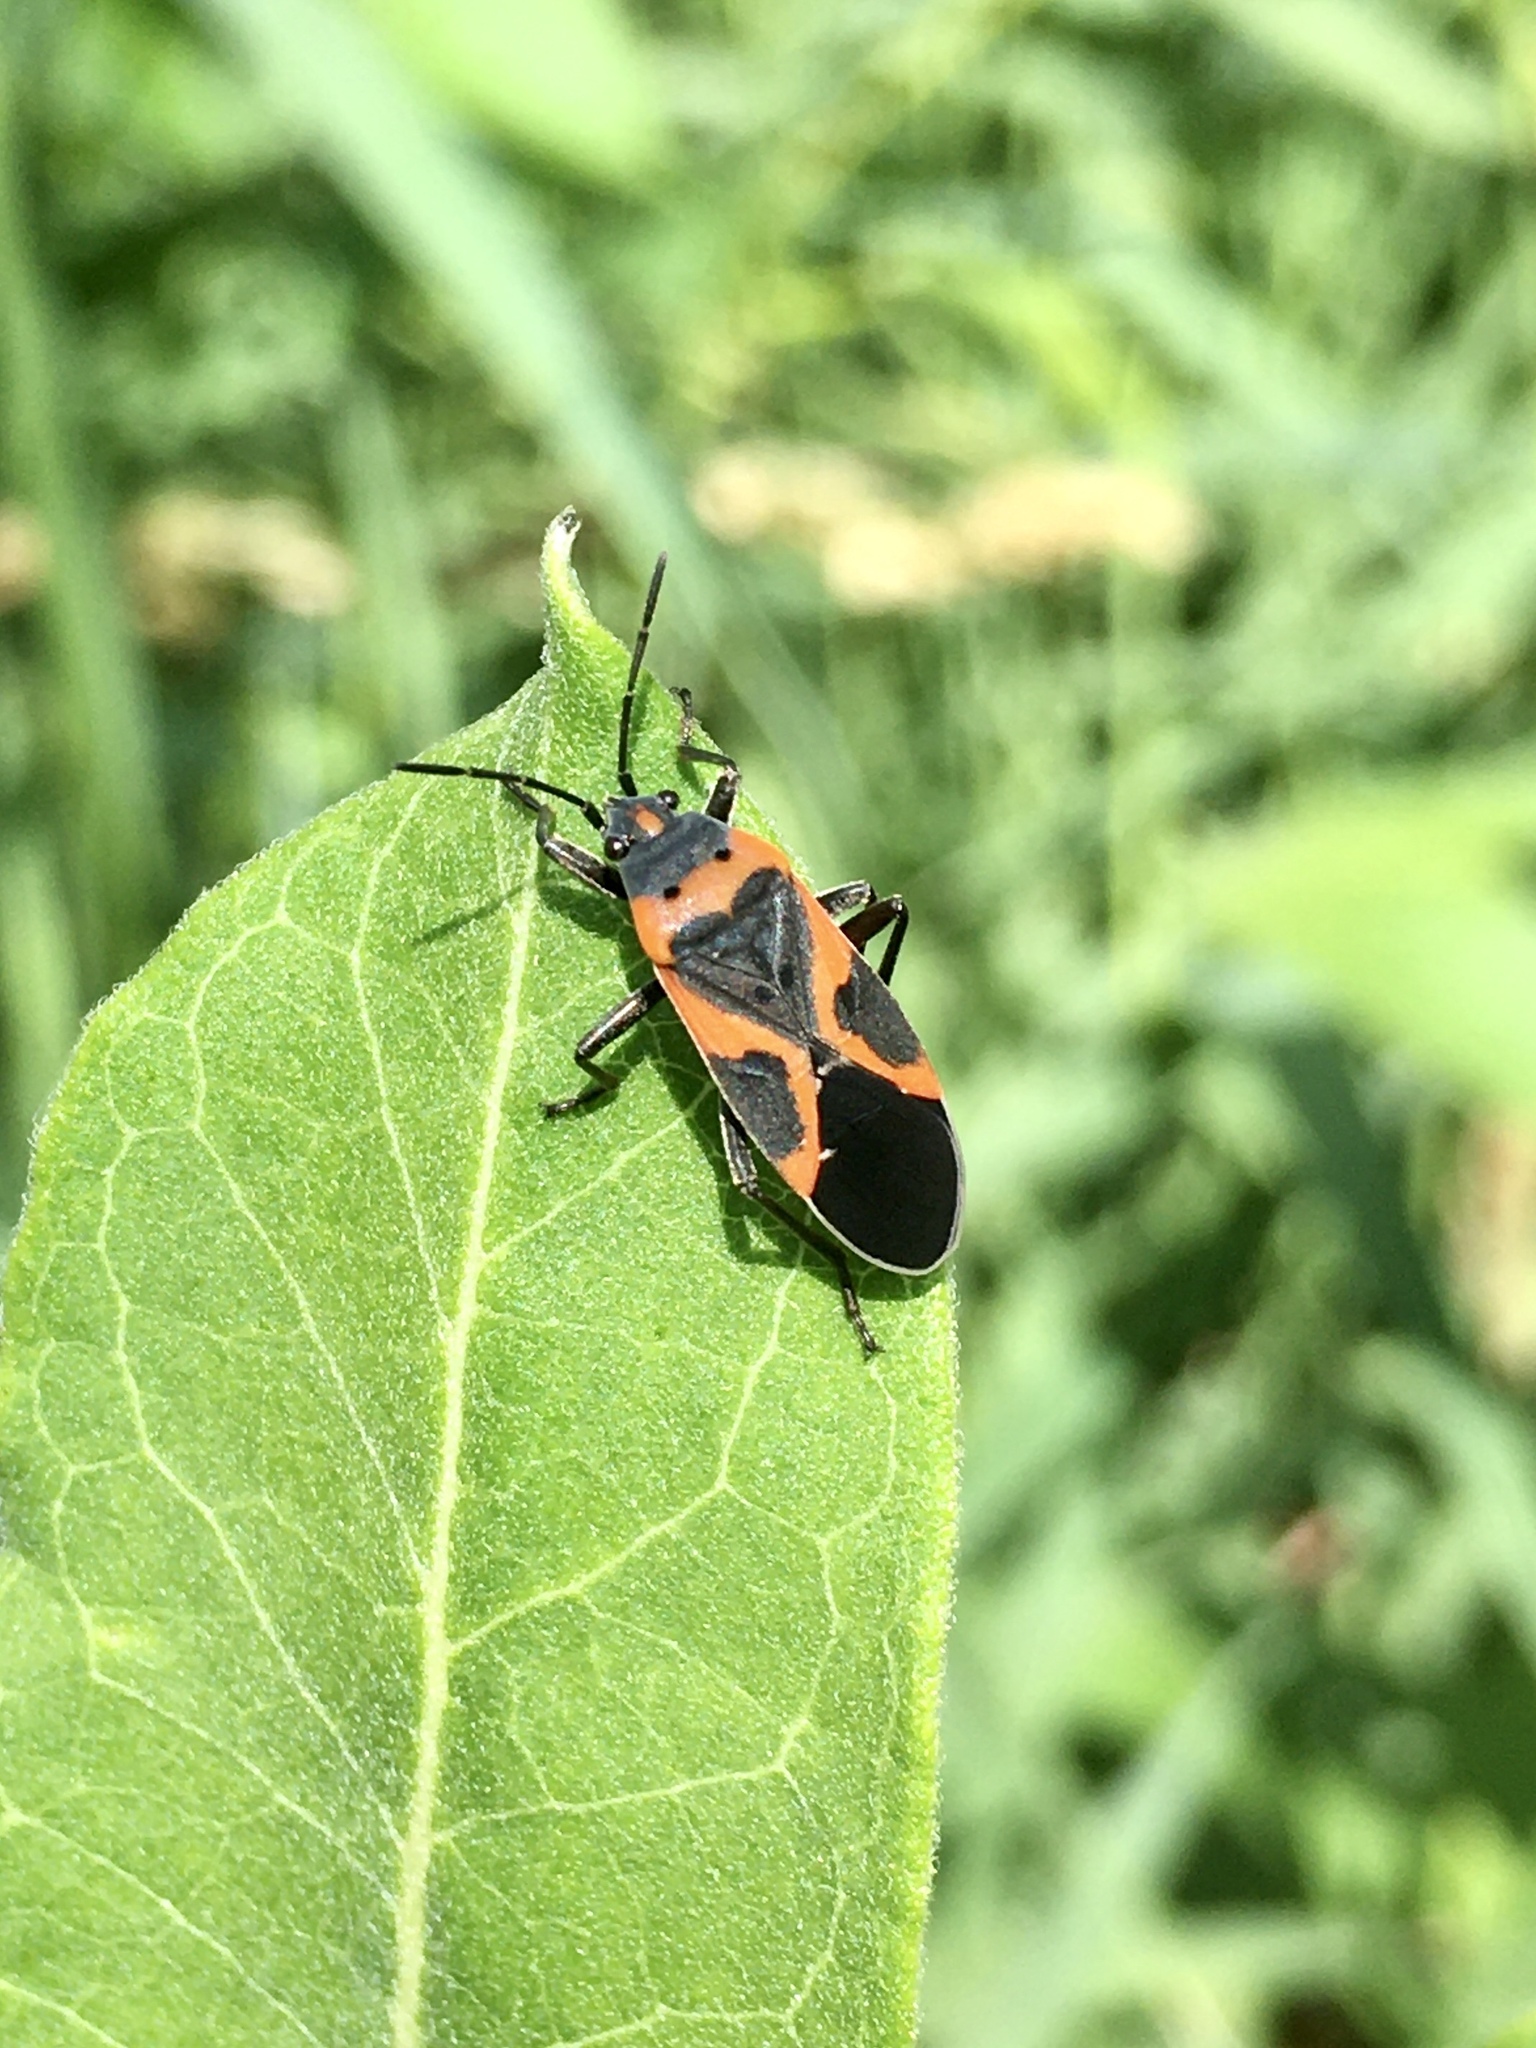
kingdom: Animalia
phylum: Arthropoda
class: Insecta
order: Hemiptera
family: Lygaeidae
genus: Lygaeus
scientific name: Lygaeus kalmii
